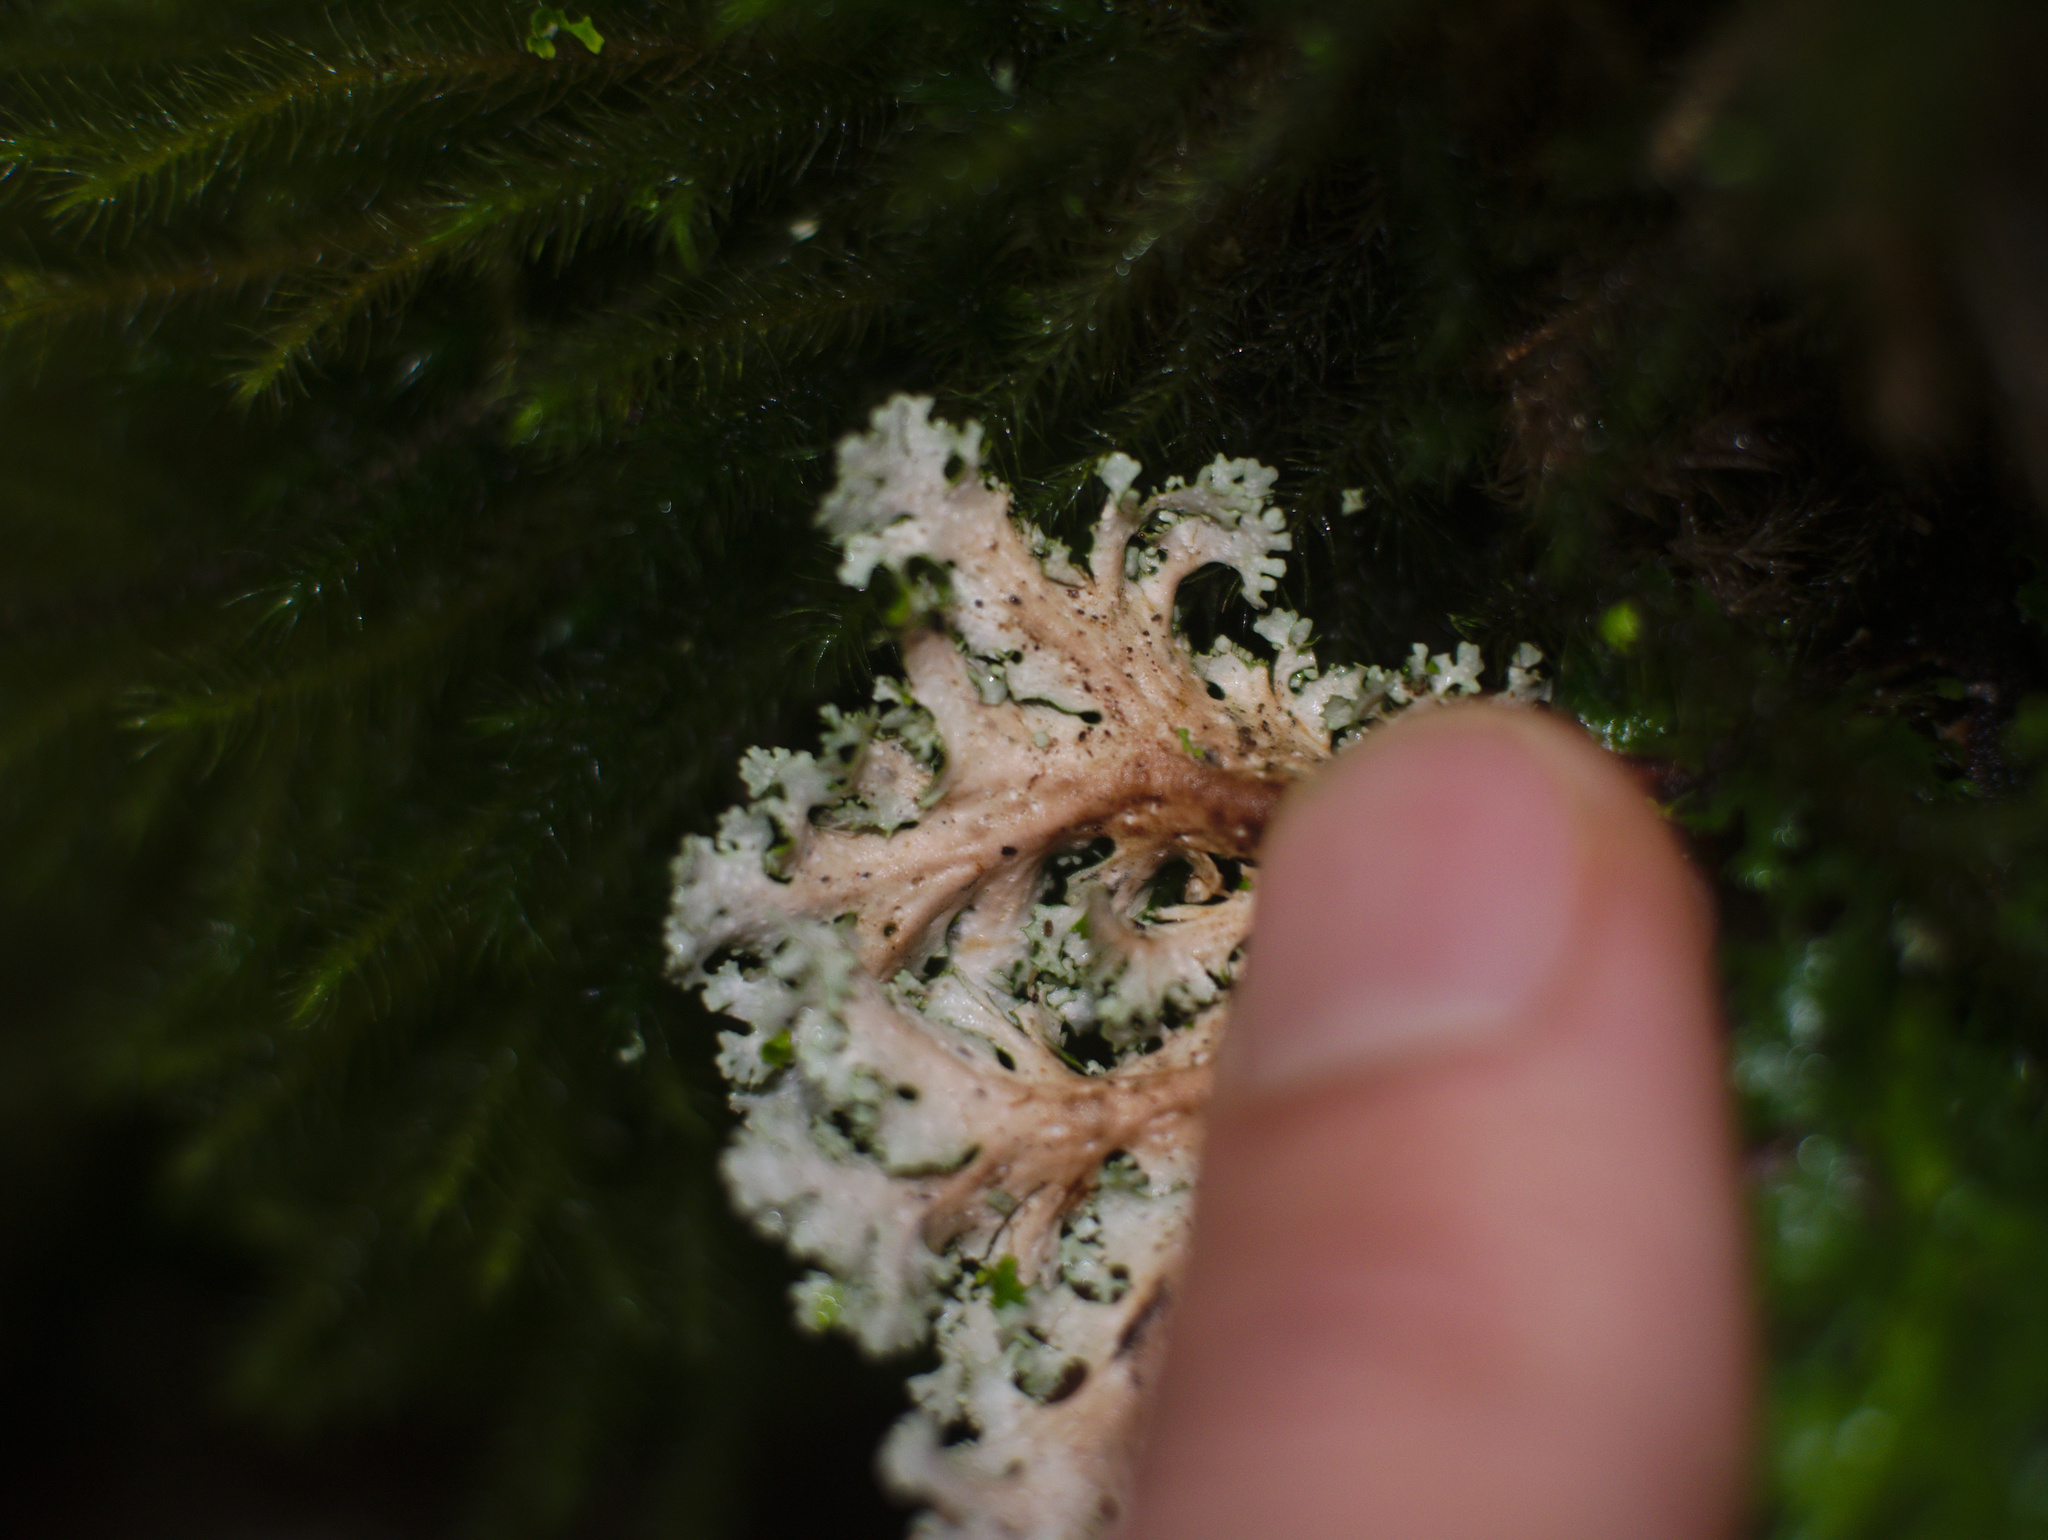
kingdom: Fungi
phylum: Ascomycota
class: Lecanoromycetes
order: Peltigerales
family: Lobariaceae
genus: Sticta
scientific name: Sticta filix
